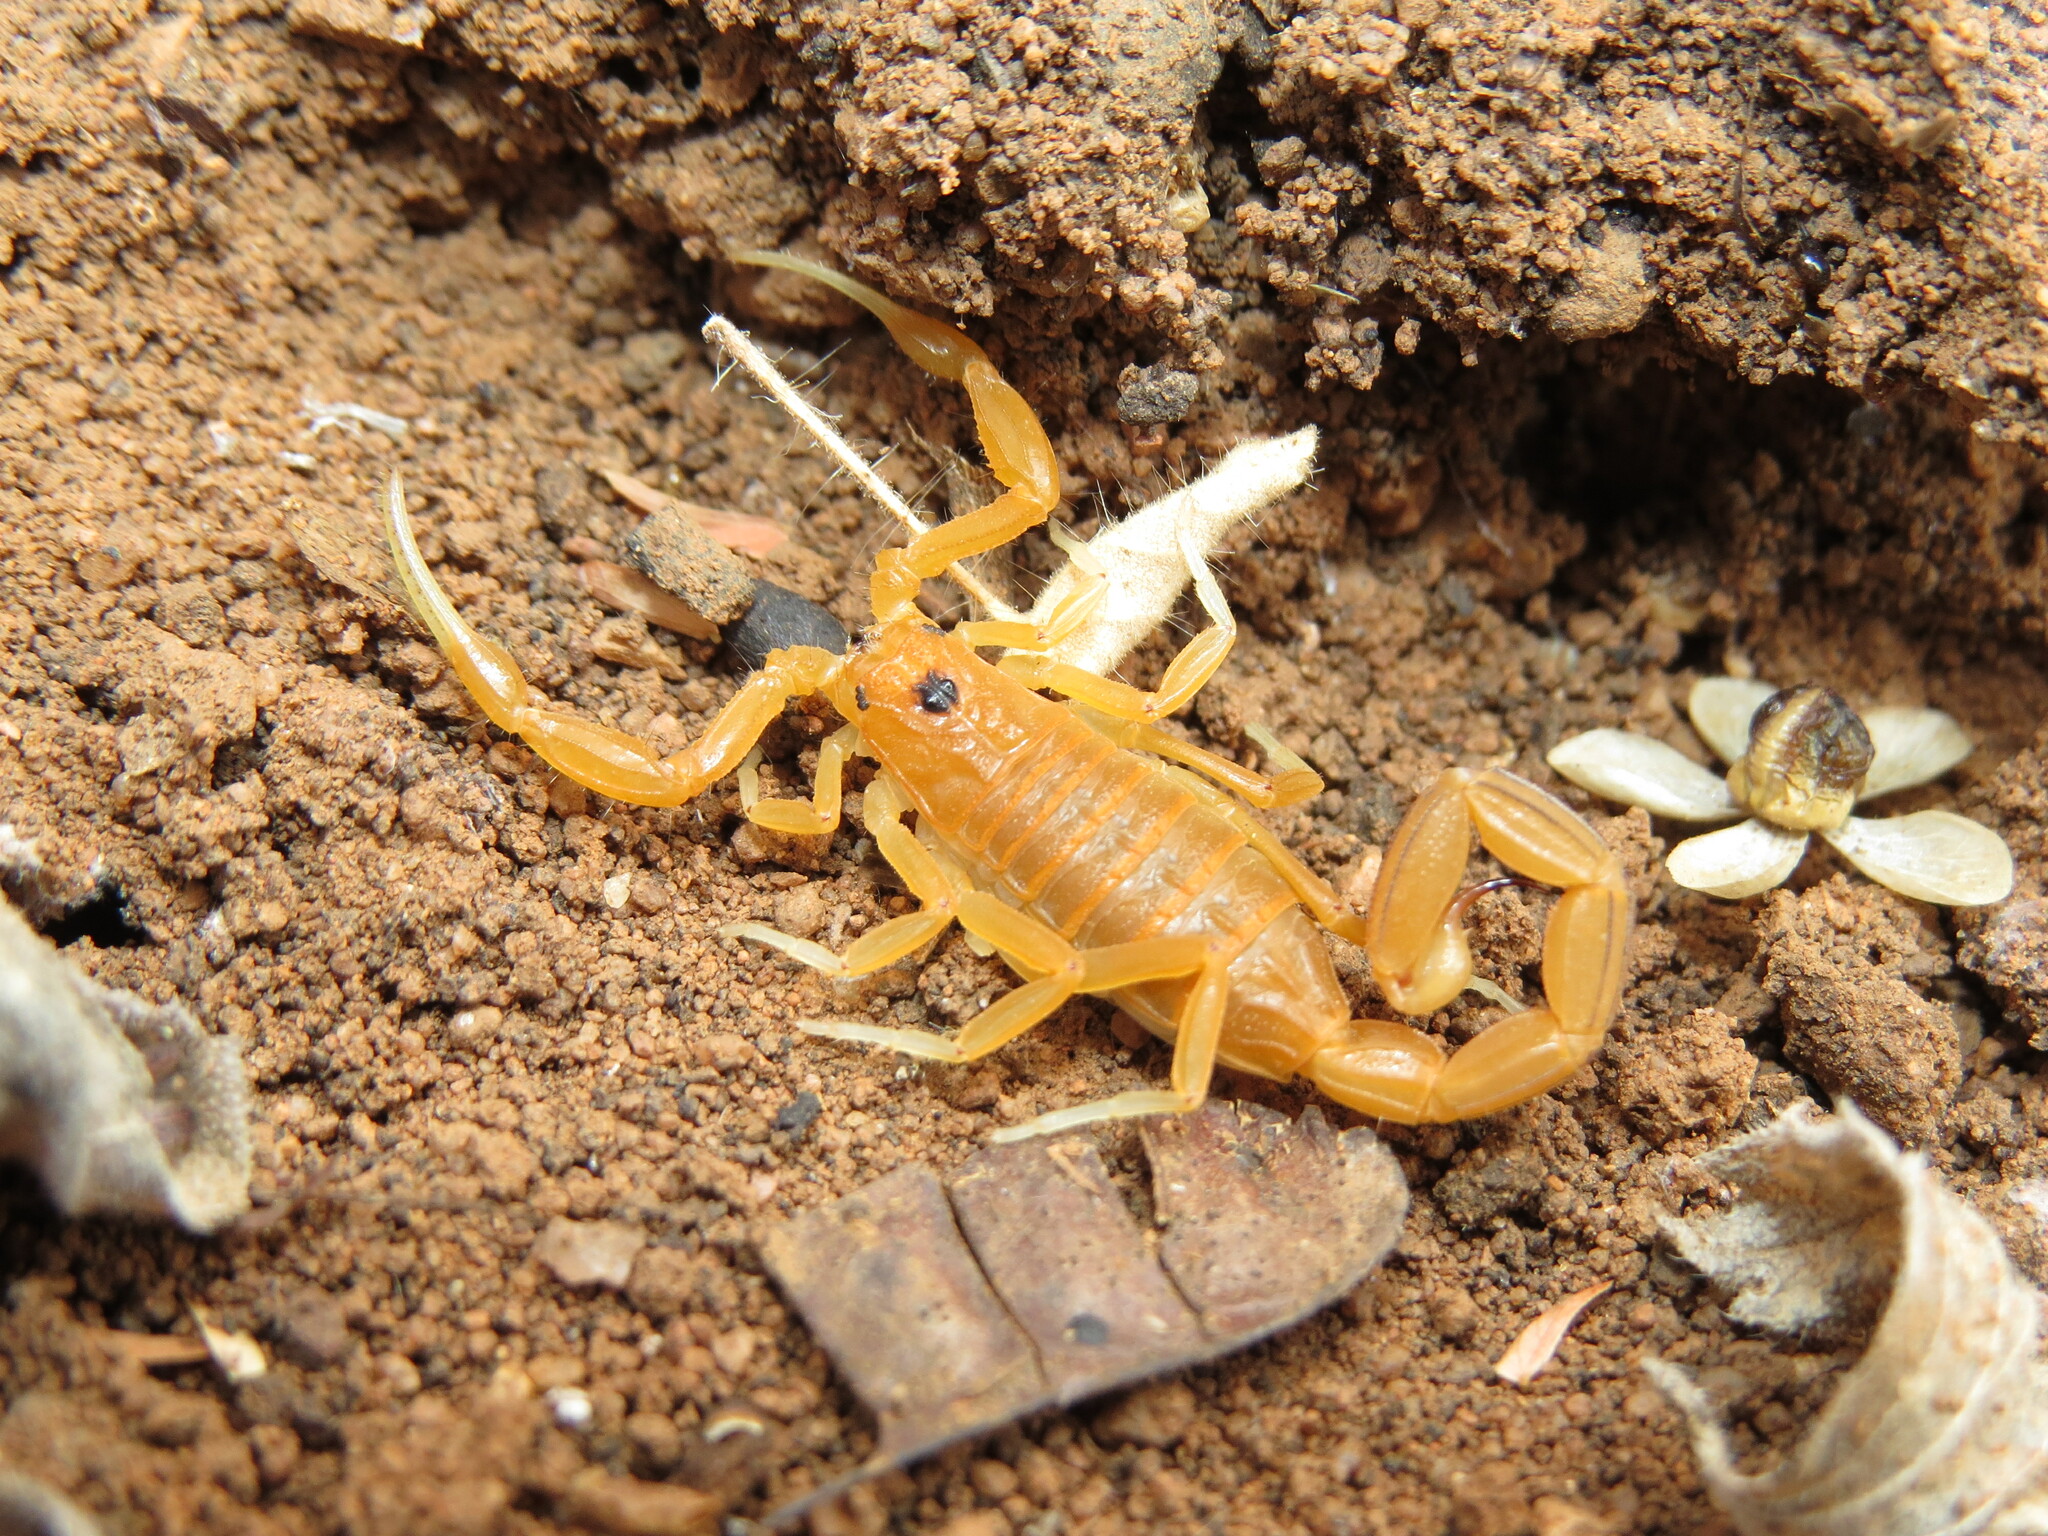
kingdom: Animalia
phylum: Arthropoda
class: Arachnida
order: Scorpiones
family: Buthidae
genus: Jaguajir
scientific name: Jaguajir rochae
